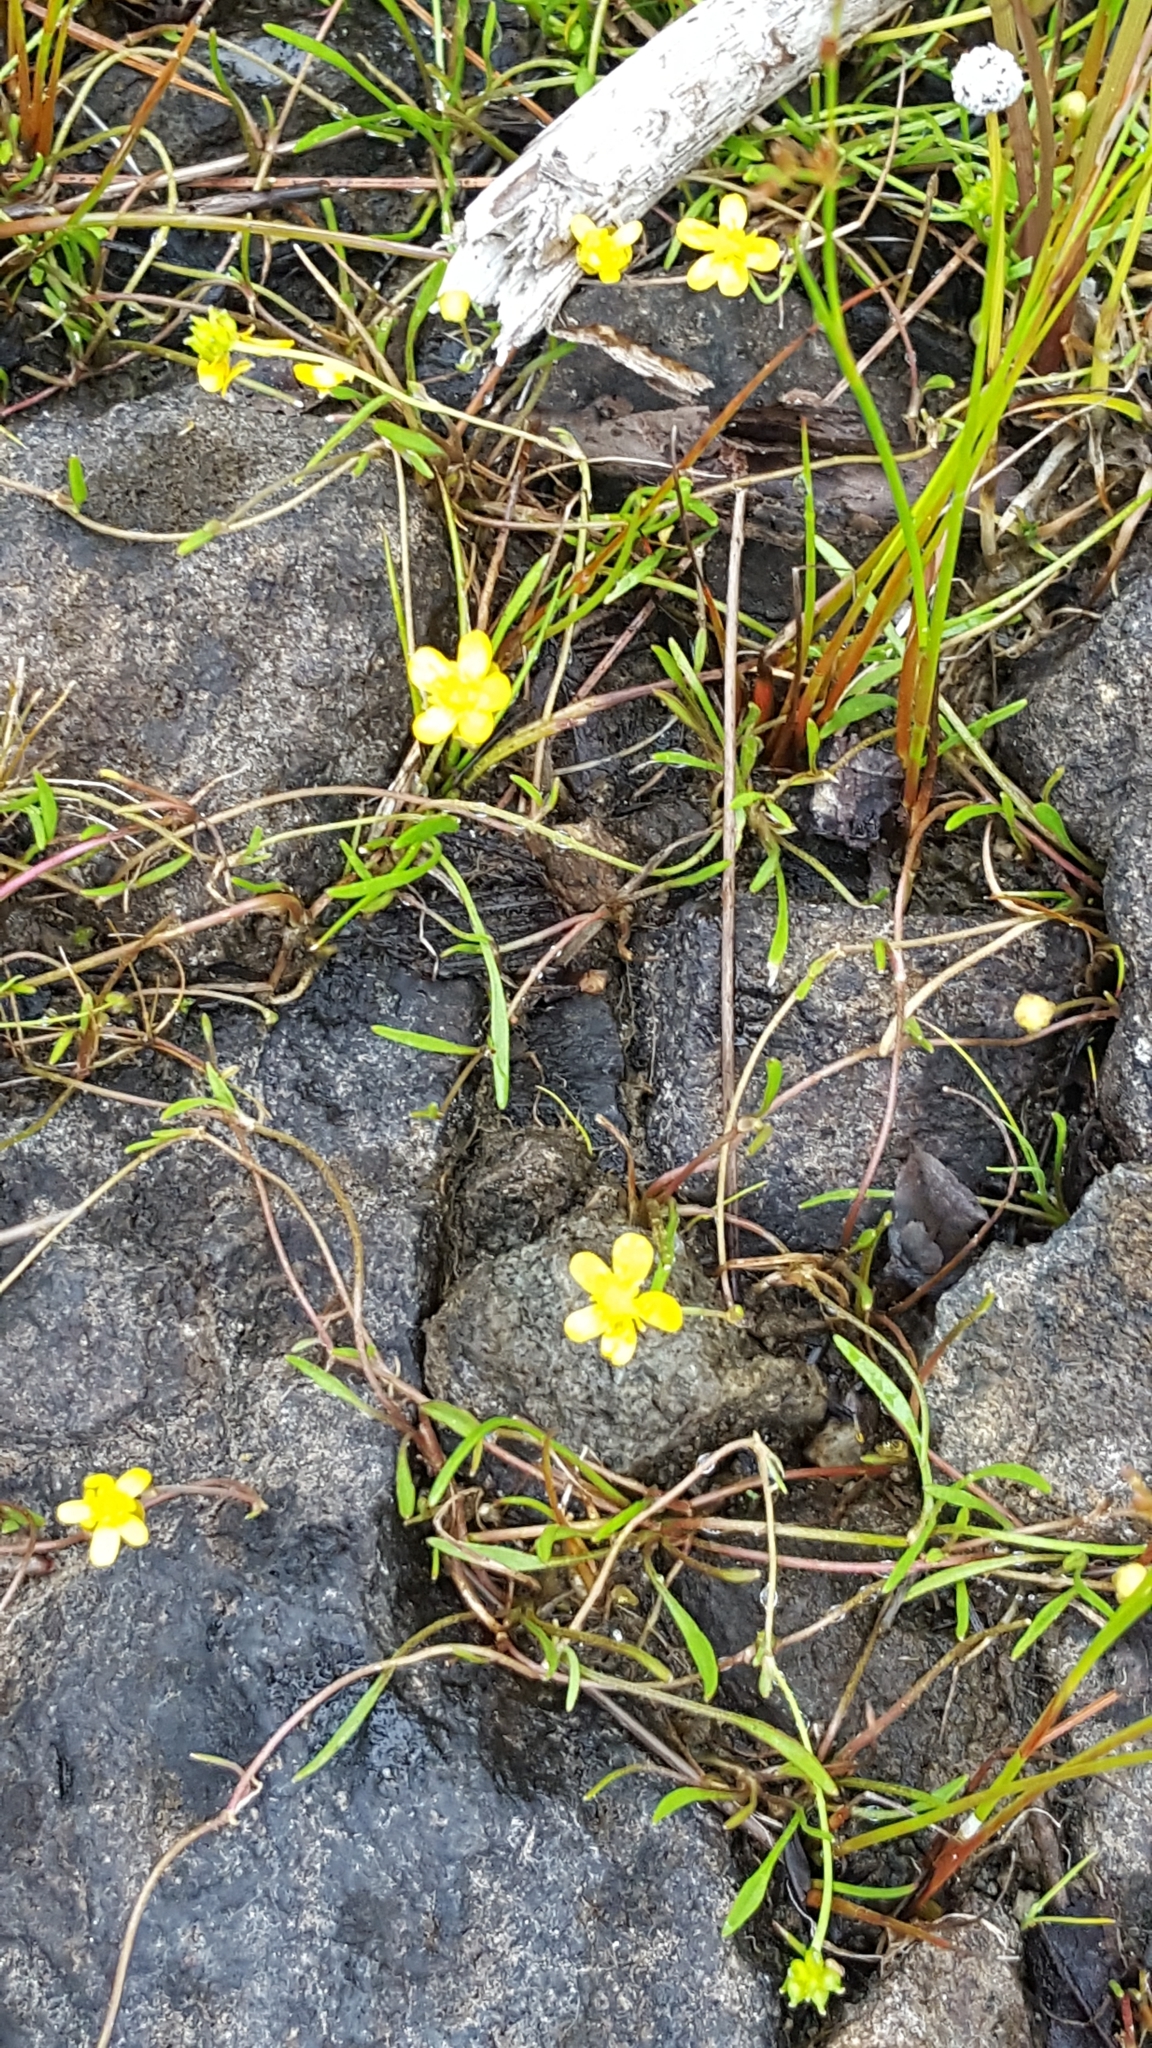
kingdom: Plantae
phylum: Tracheophyta
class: Magnoliopsida
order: Ranunculales
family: Ranunculaceae
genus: Ranunculus
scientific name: Ranunculus flammula
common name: Lesser spearwort
